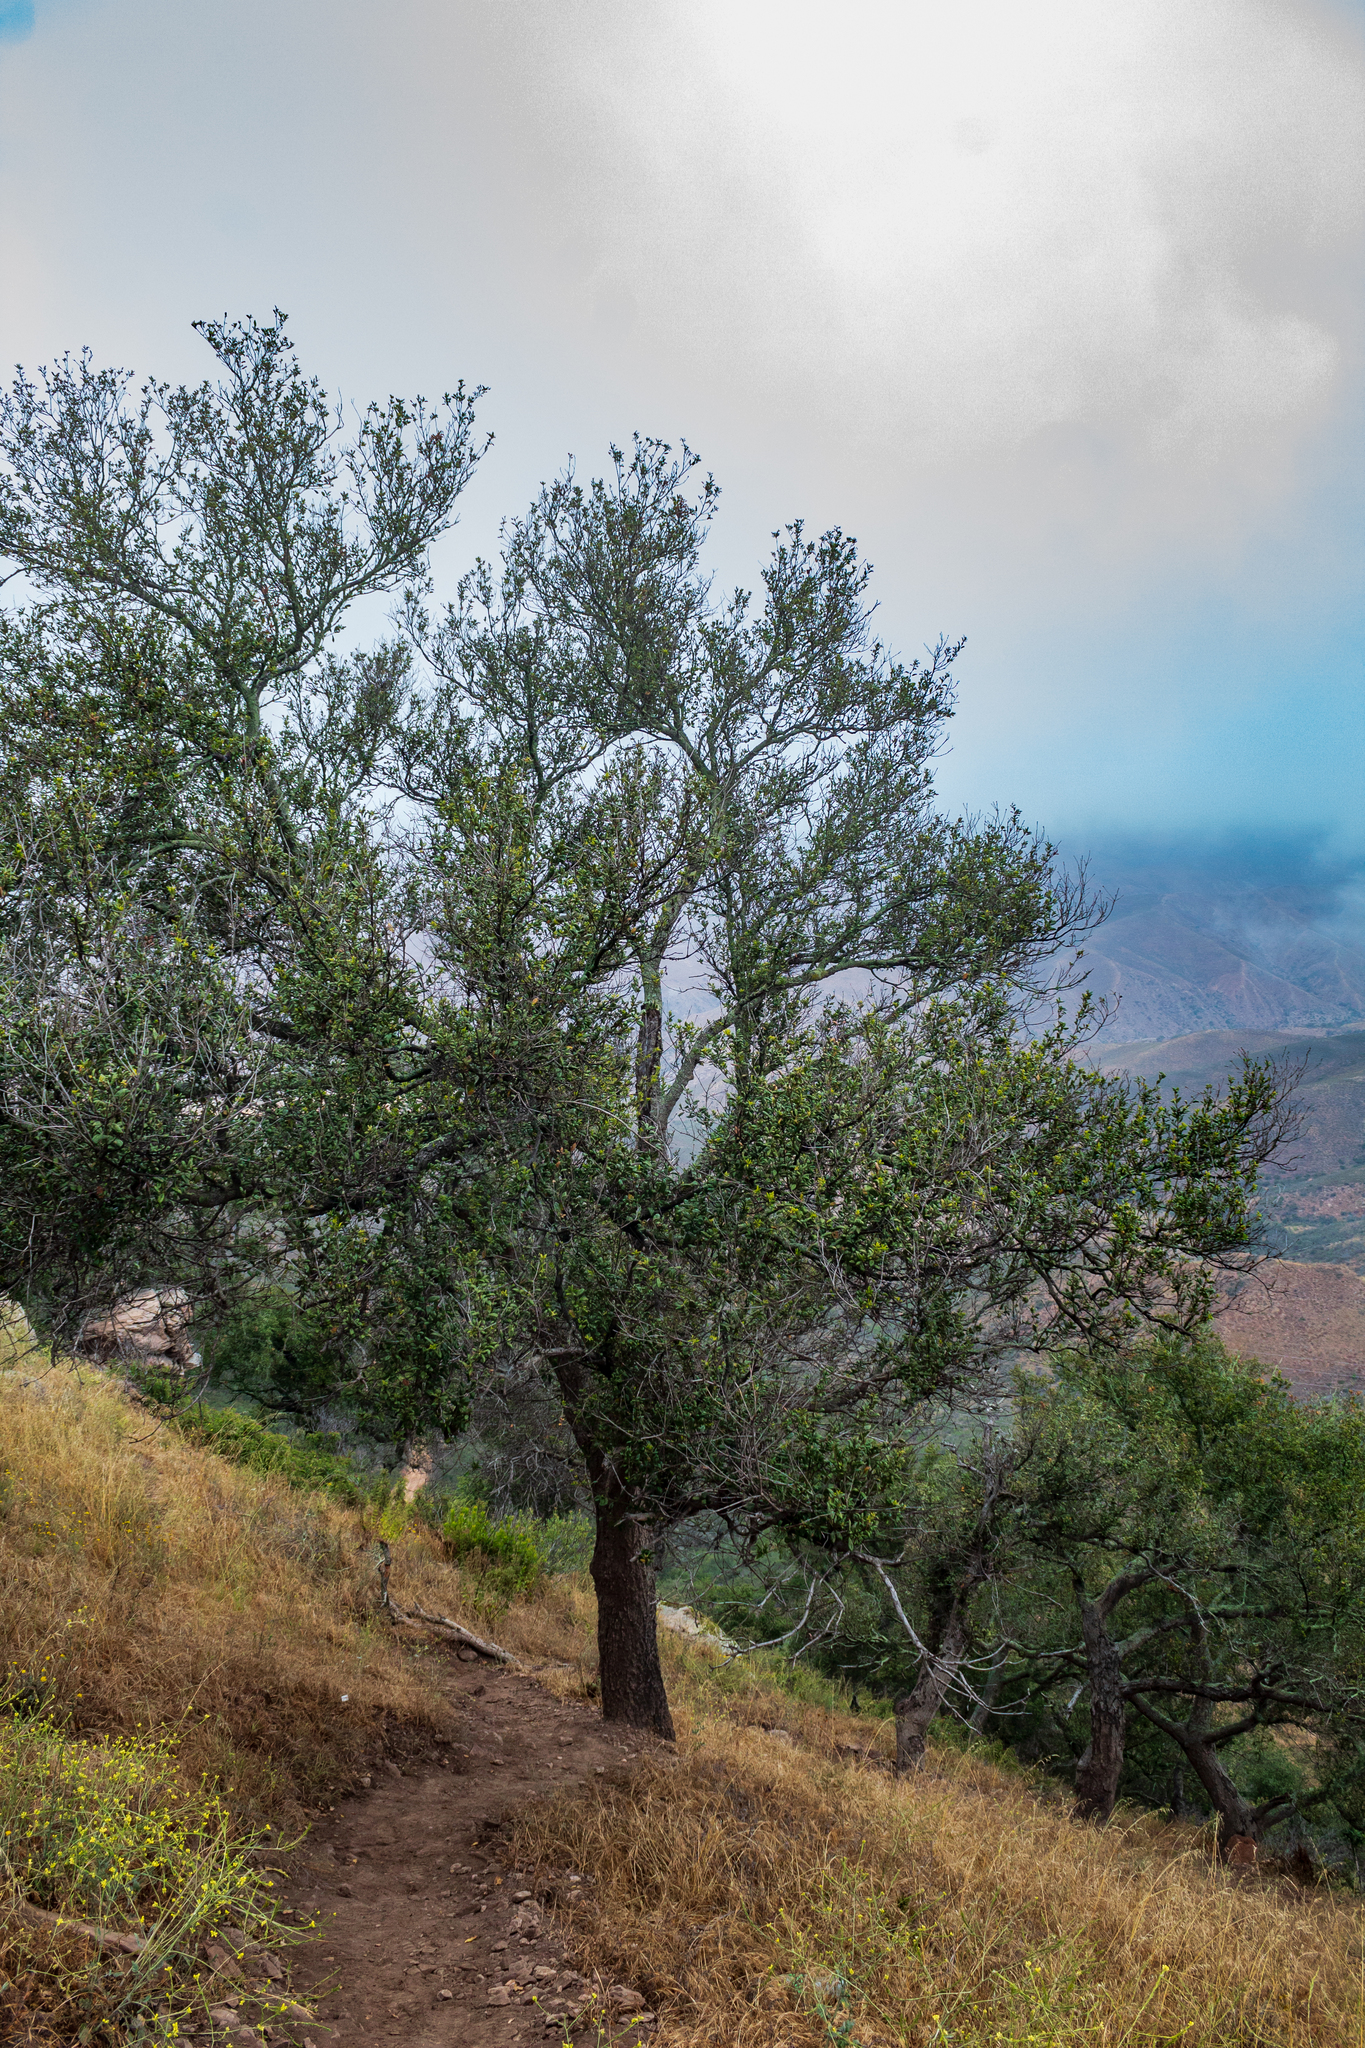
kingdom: Plantae
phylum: Tracheophyta
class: Magnoliopsida
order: Fagales
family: Fagaceae
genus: Quercus
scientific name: Quercus agrifolia
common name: California live oak
